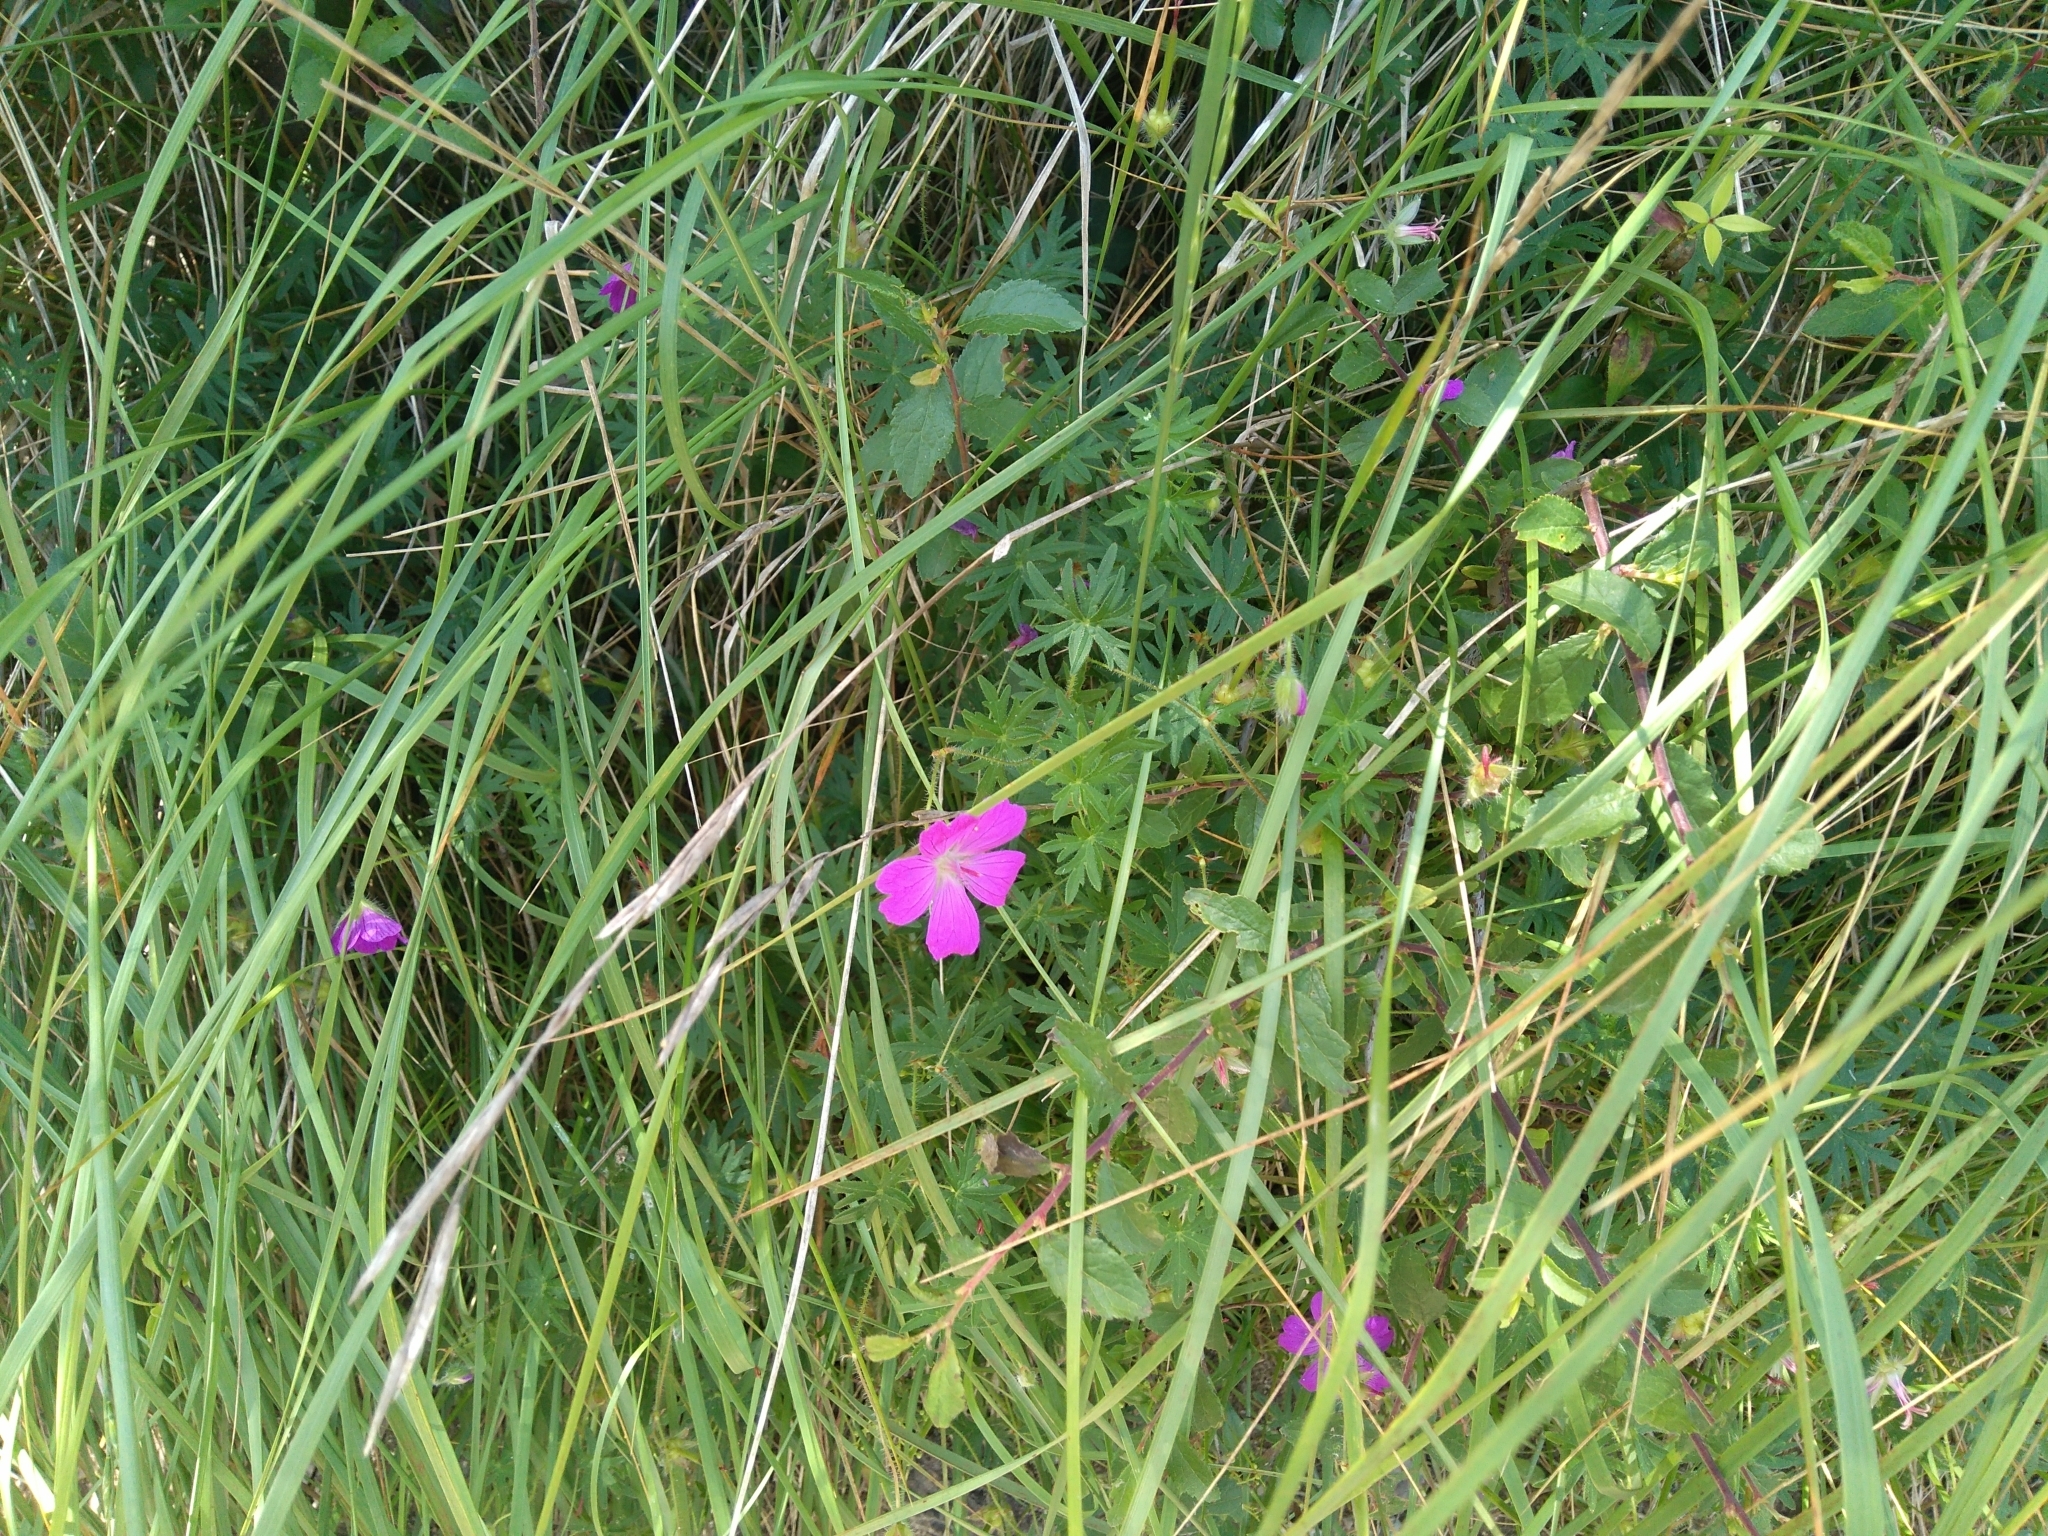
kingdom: Plantae
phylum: Tracheophyta
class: Magnoliopsida
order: Geraniales
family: Geraniaceae
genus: Geranium
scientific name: Geranium sanguineum
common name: Bloody crane's-bill
